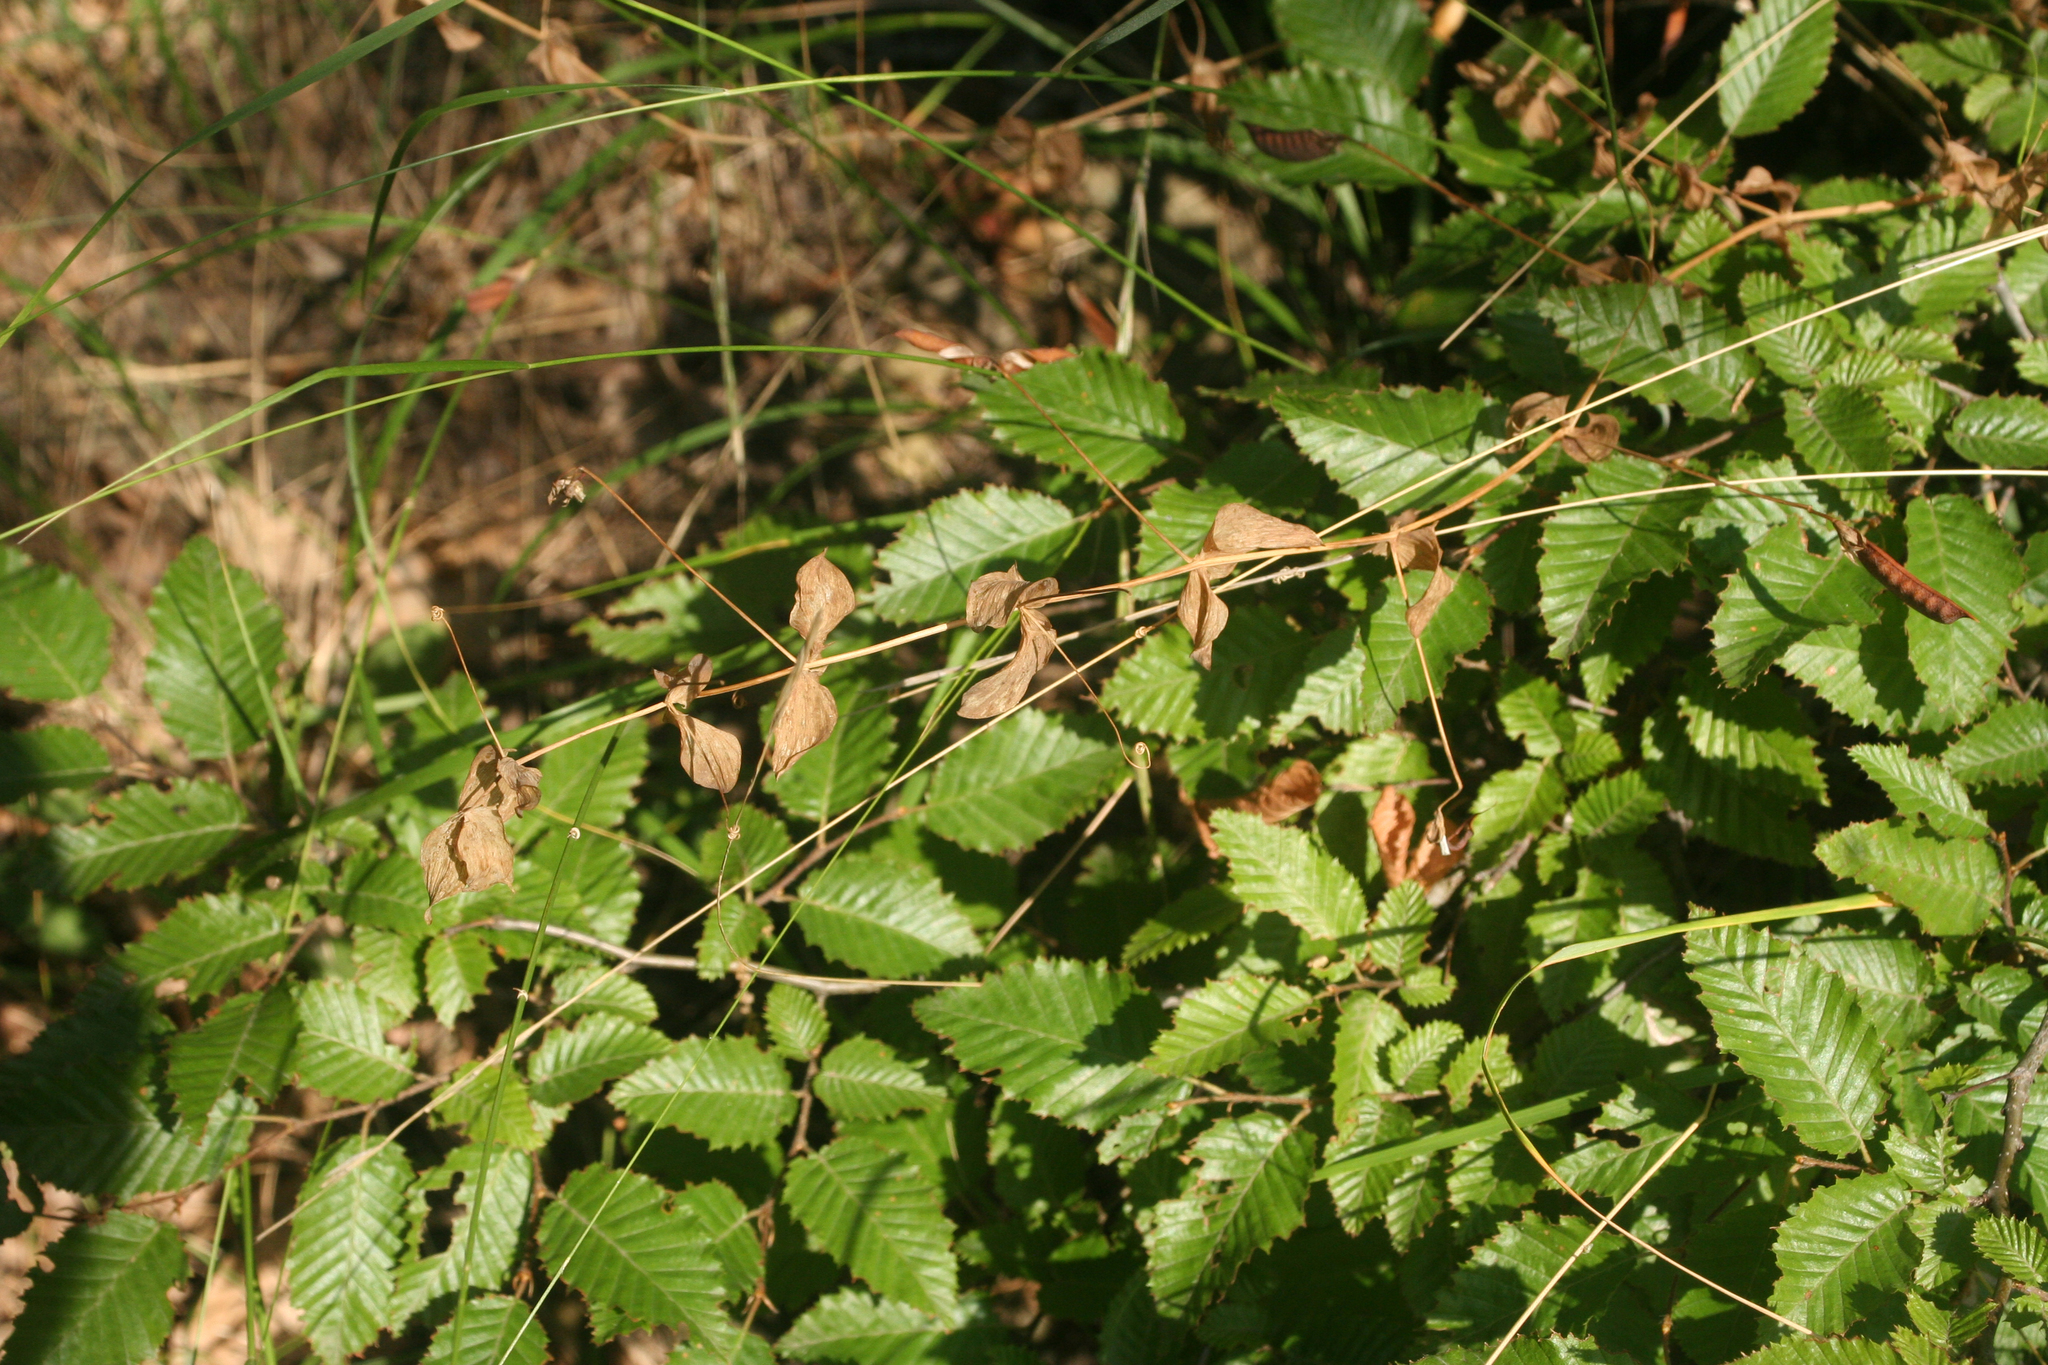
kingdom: Plantae
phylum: Tracheophyta
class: Magnoliopsida
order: Fabales
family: Fabaceae
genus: Lathyrus
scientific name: Lathyrus aphaca
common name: Yellow vetchling
